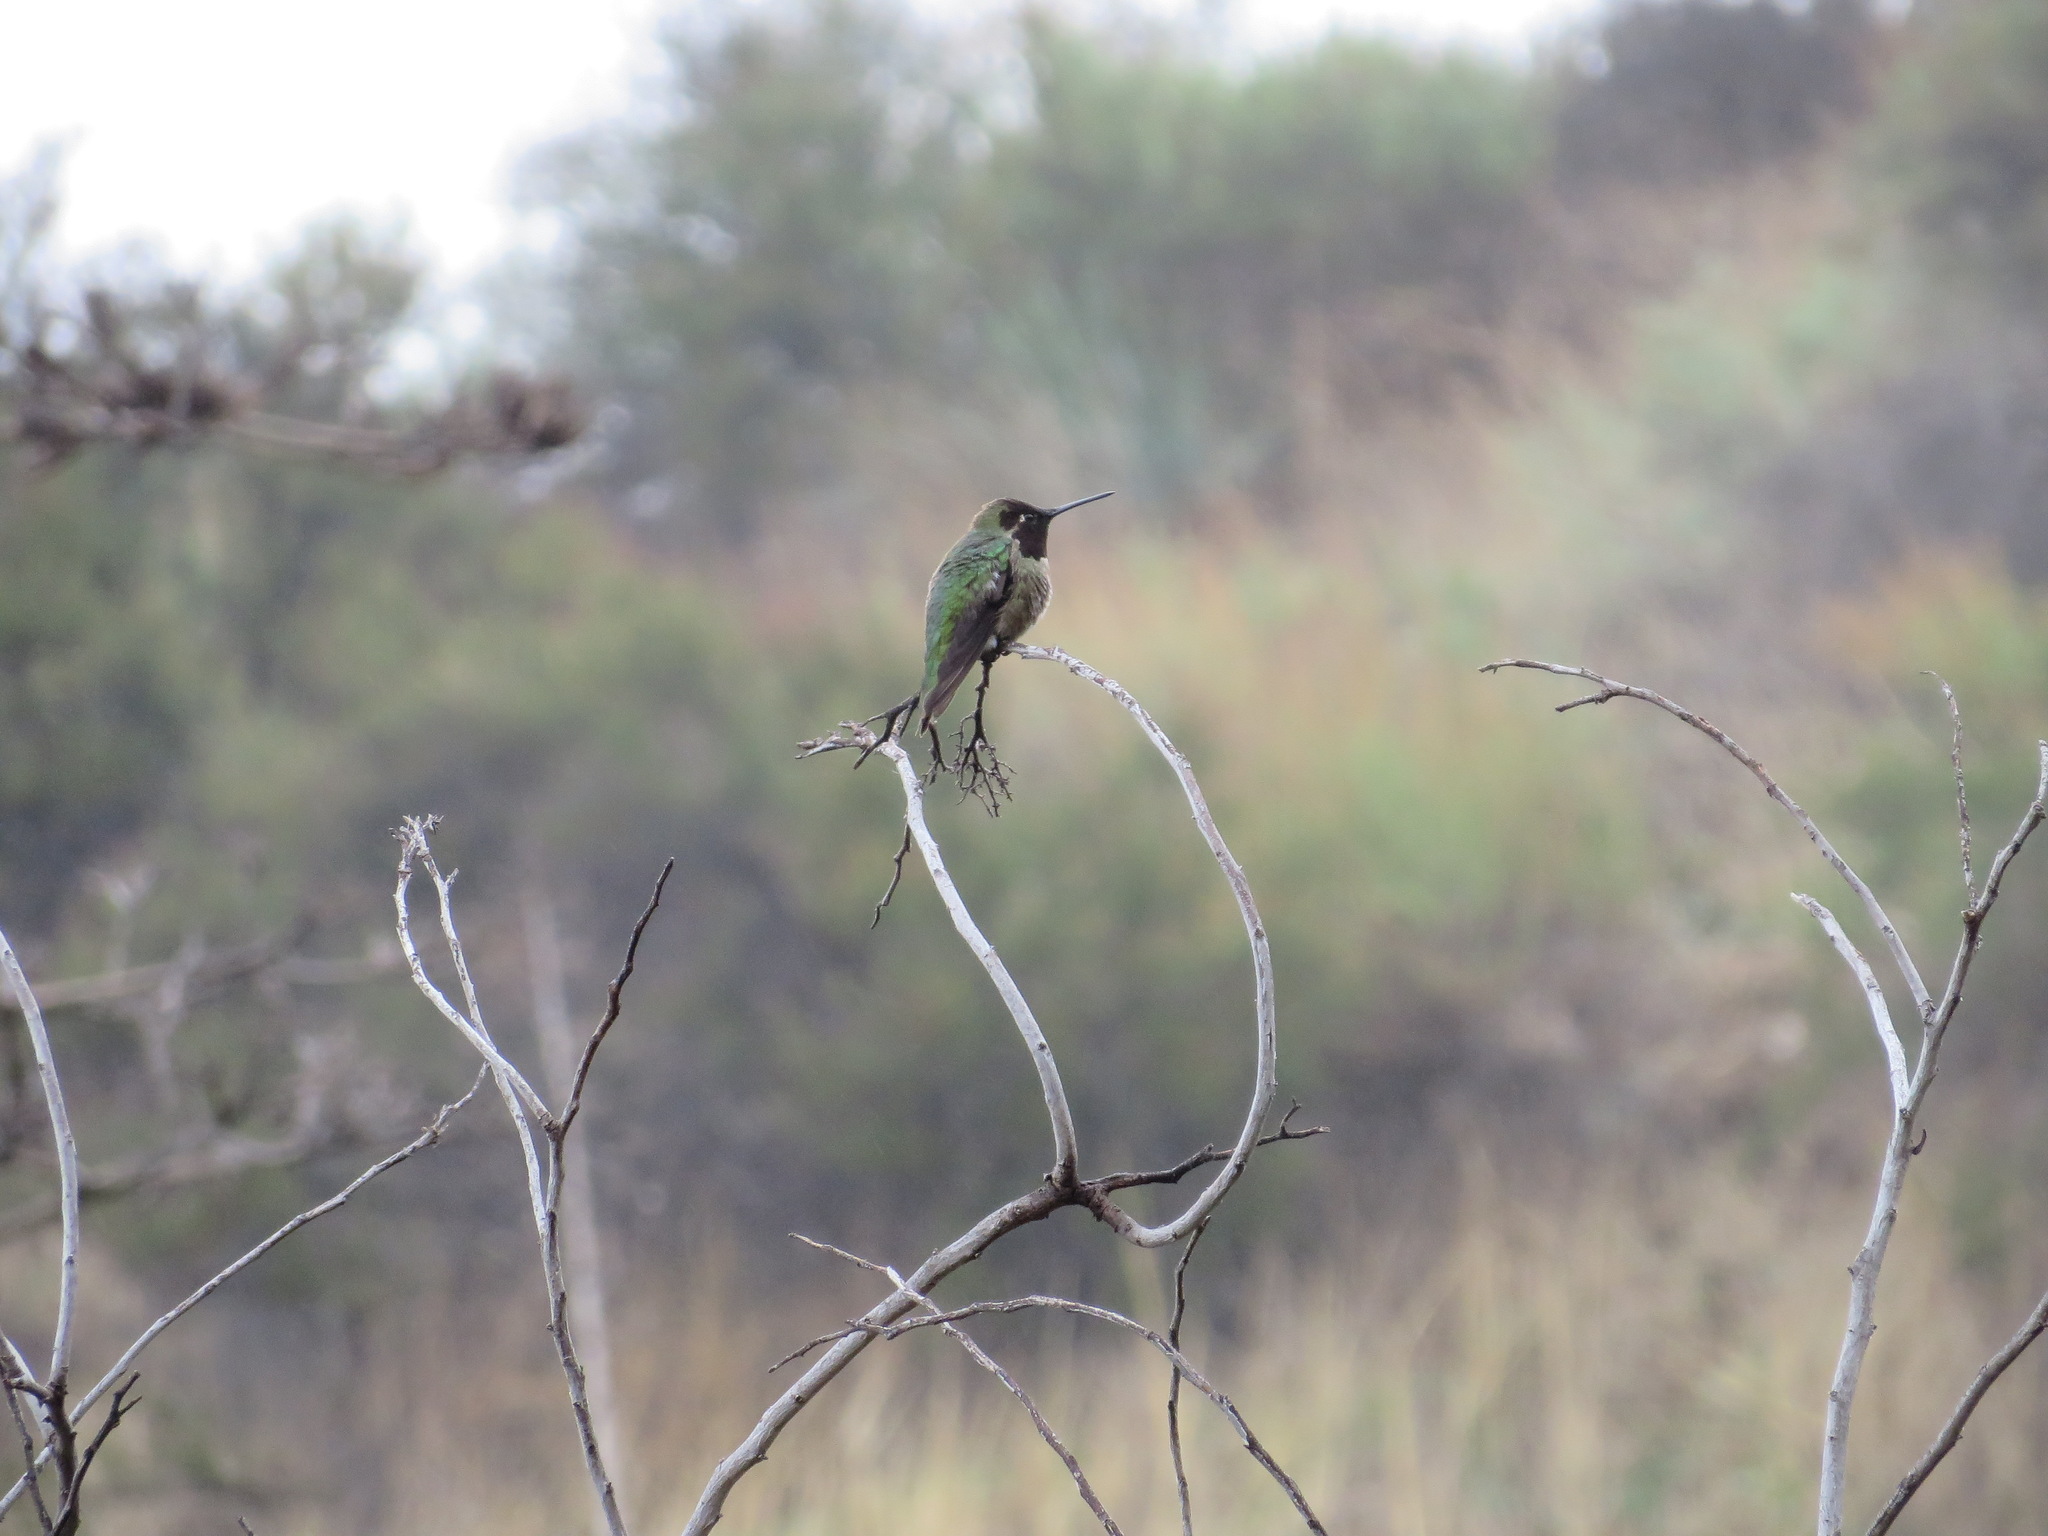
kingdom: Animalia
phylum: Chordata
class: Aves
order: Apodiformes
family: Trochilidae
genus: Calypte
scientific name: Calypte anna
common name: Anna's hummingbird
